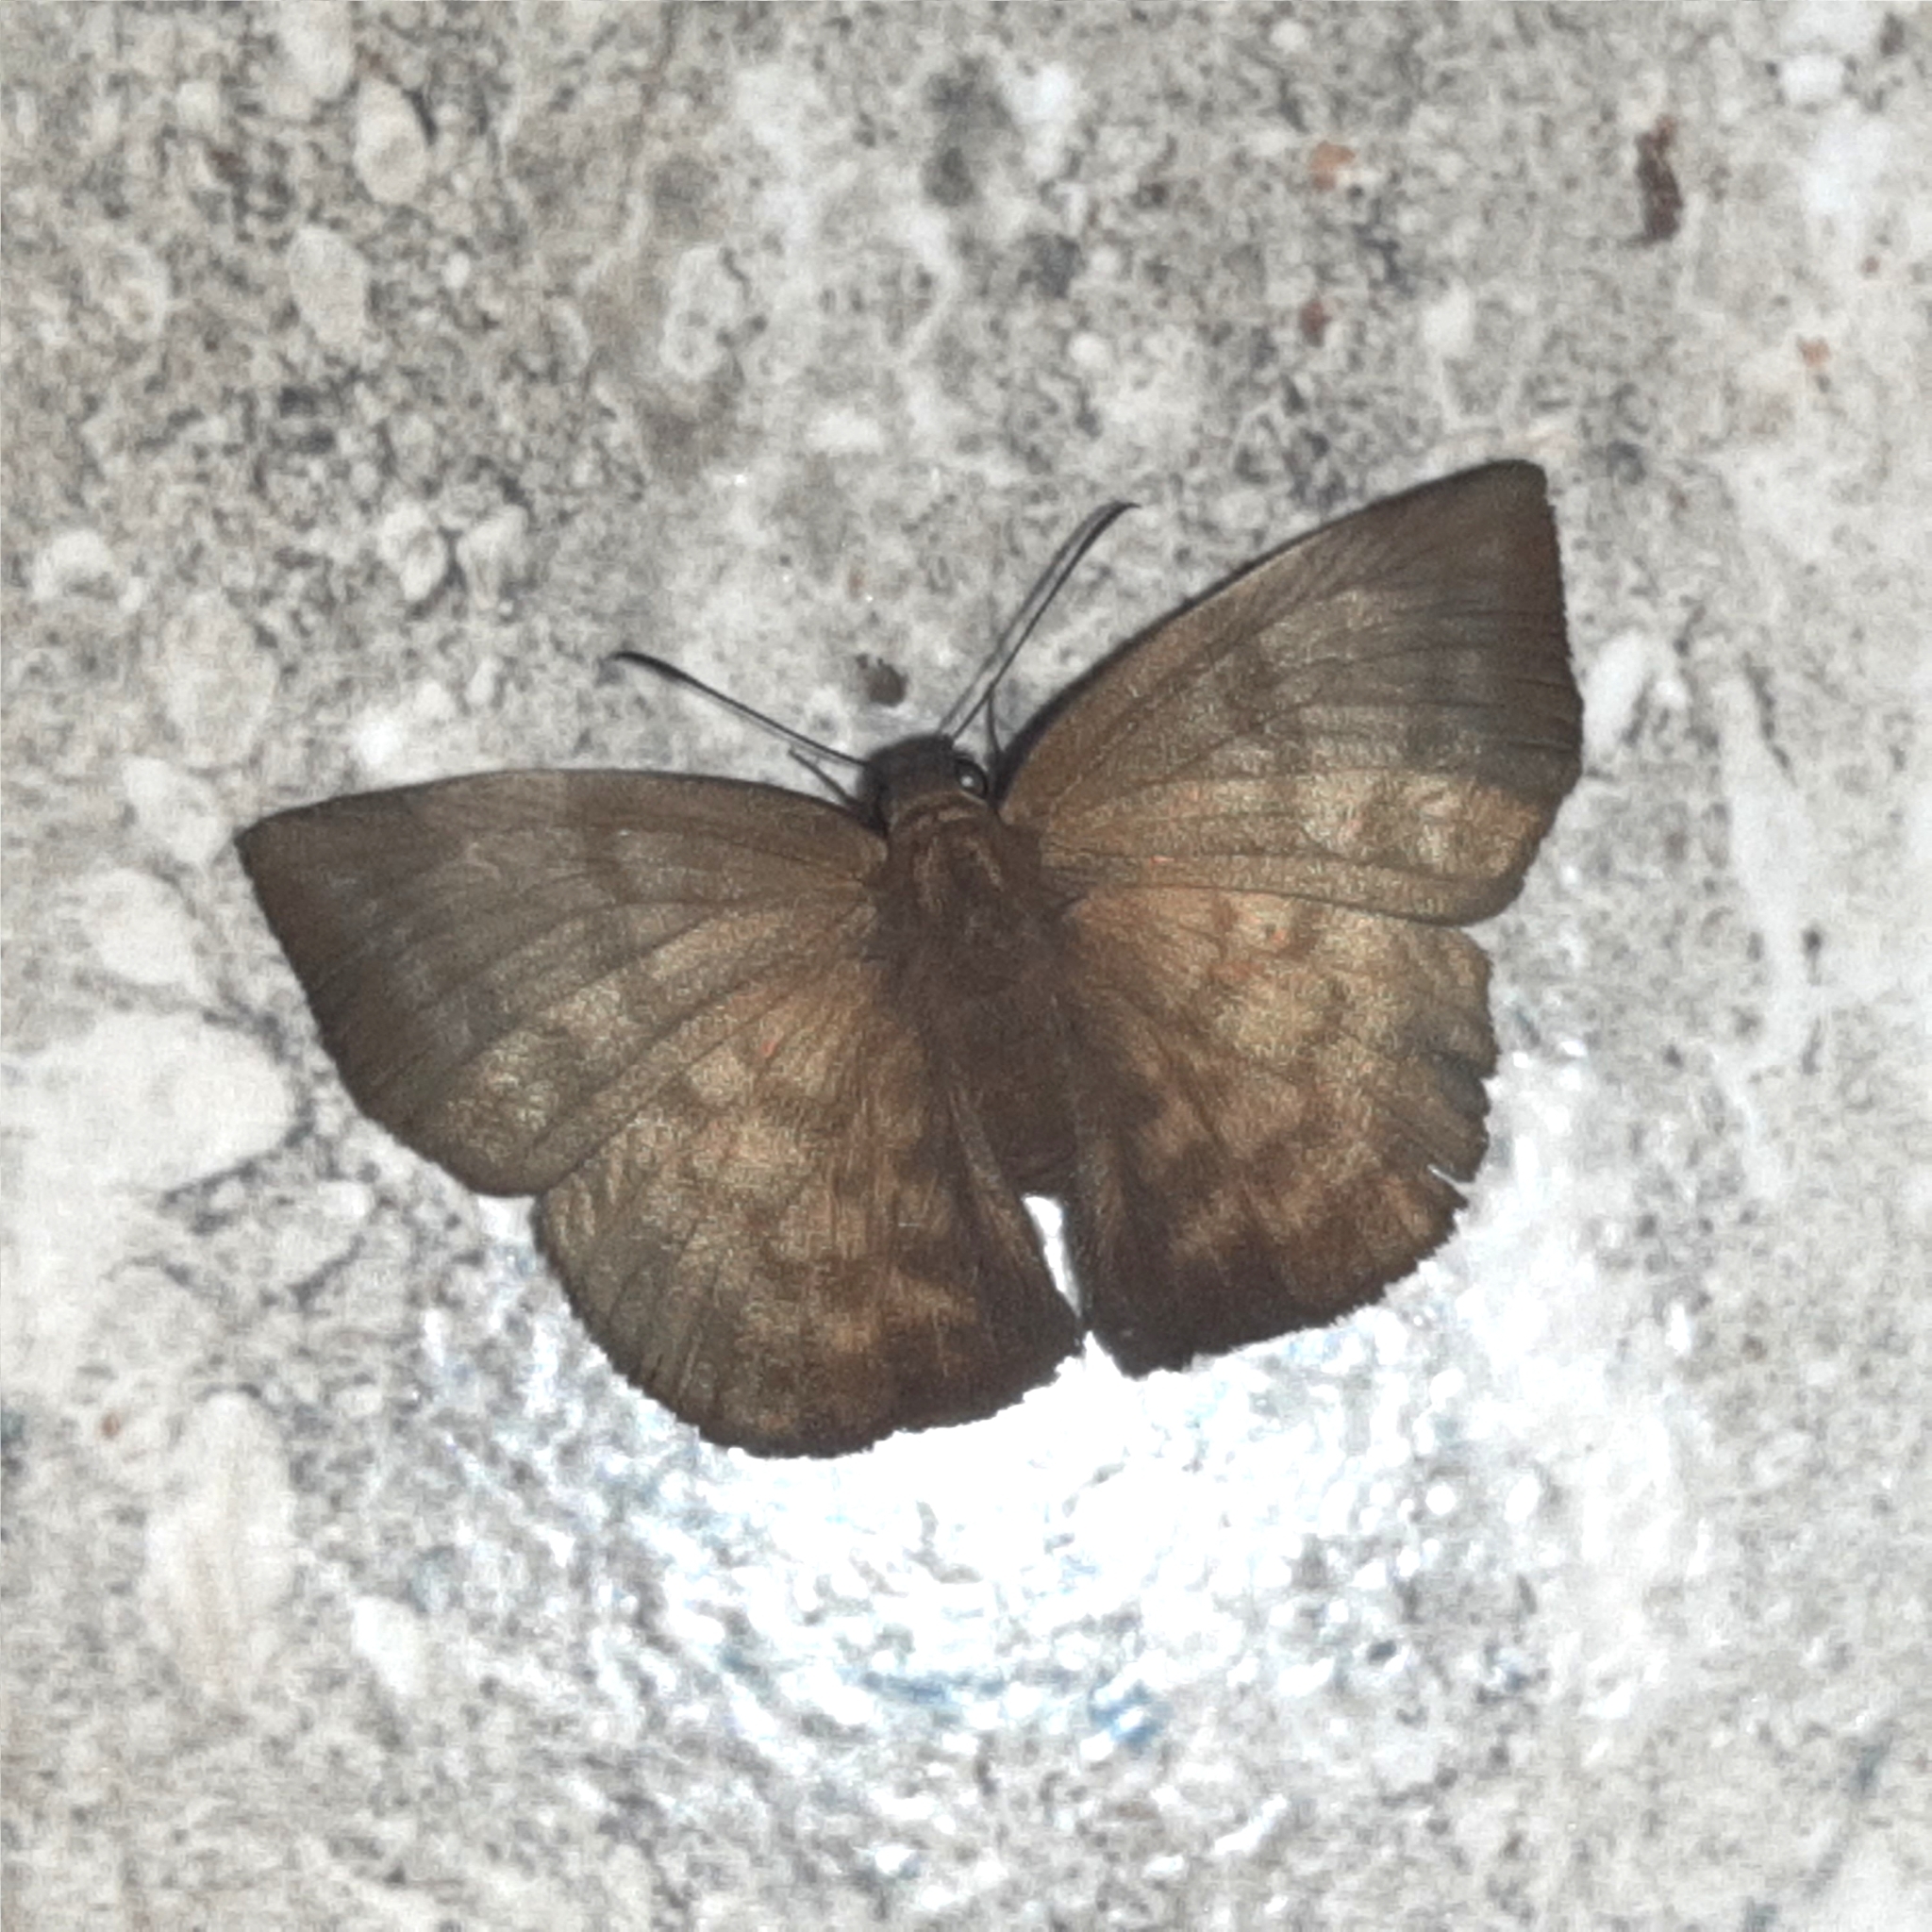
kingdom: Animalia
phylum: Arthropoda
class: Insecta
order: Lepidoptera
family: Hesperiidae
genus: Achlyodes
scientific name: Achlyodes pallida
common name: Pale sicklewing
